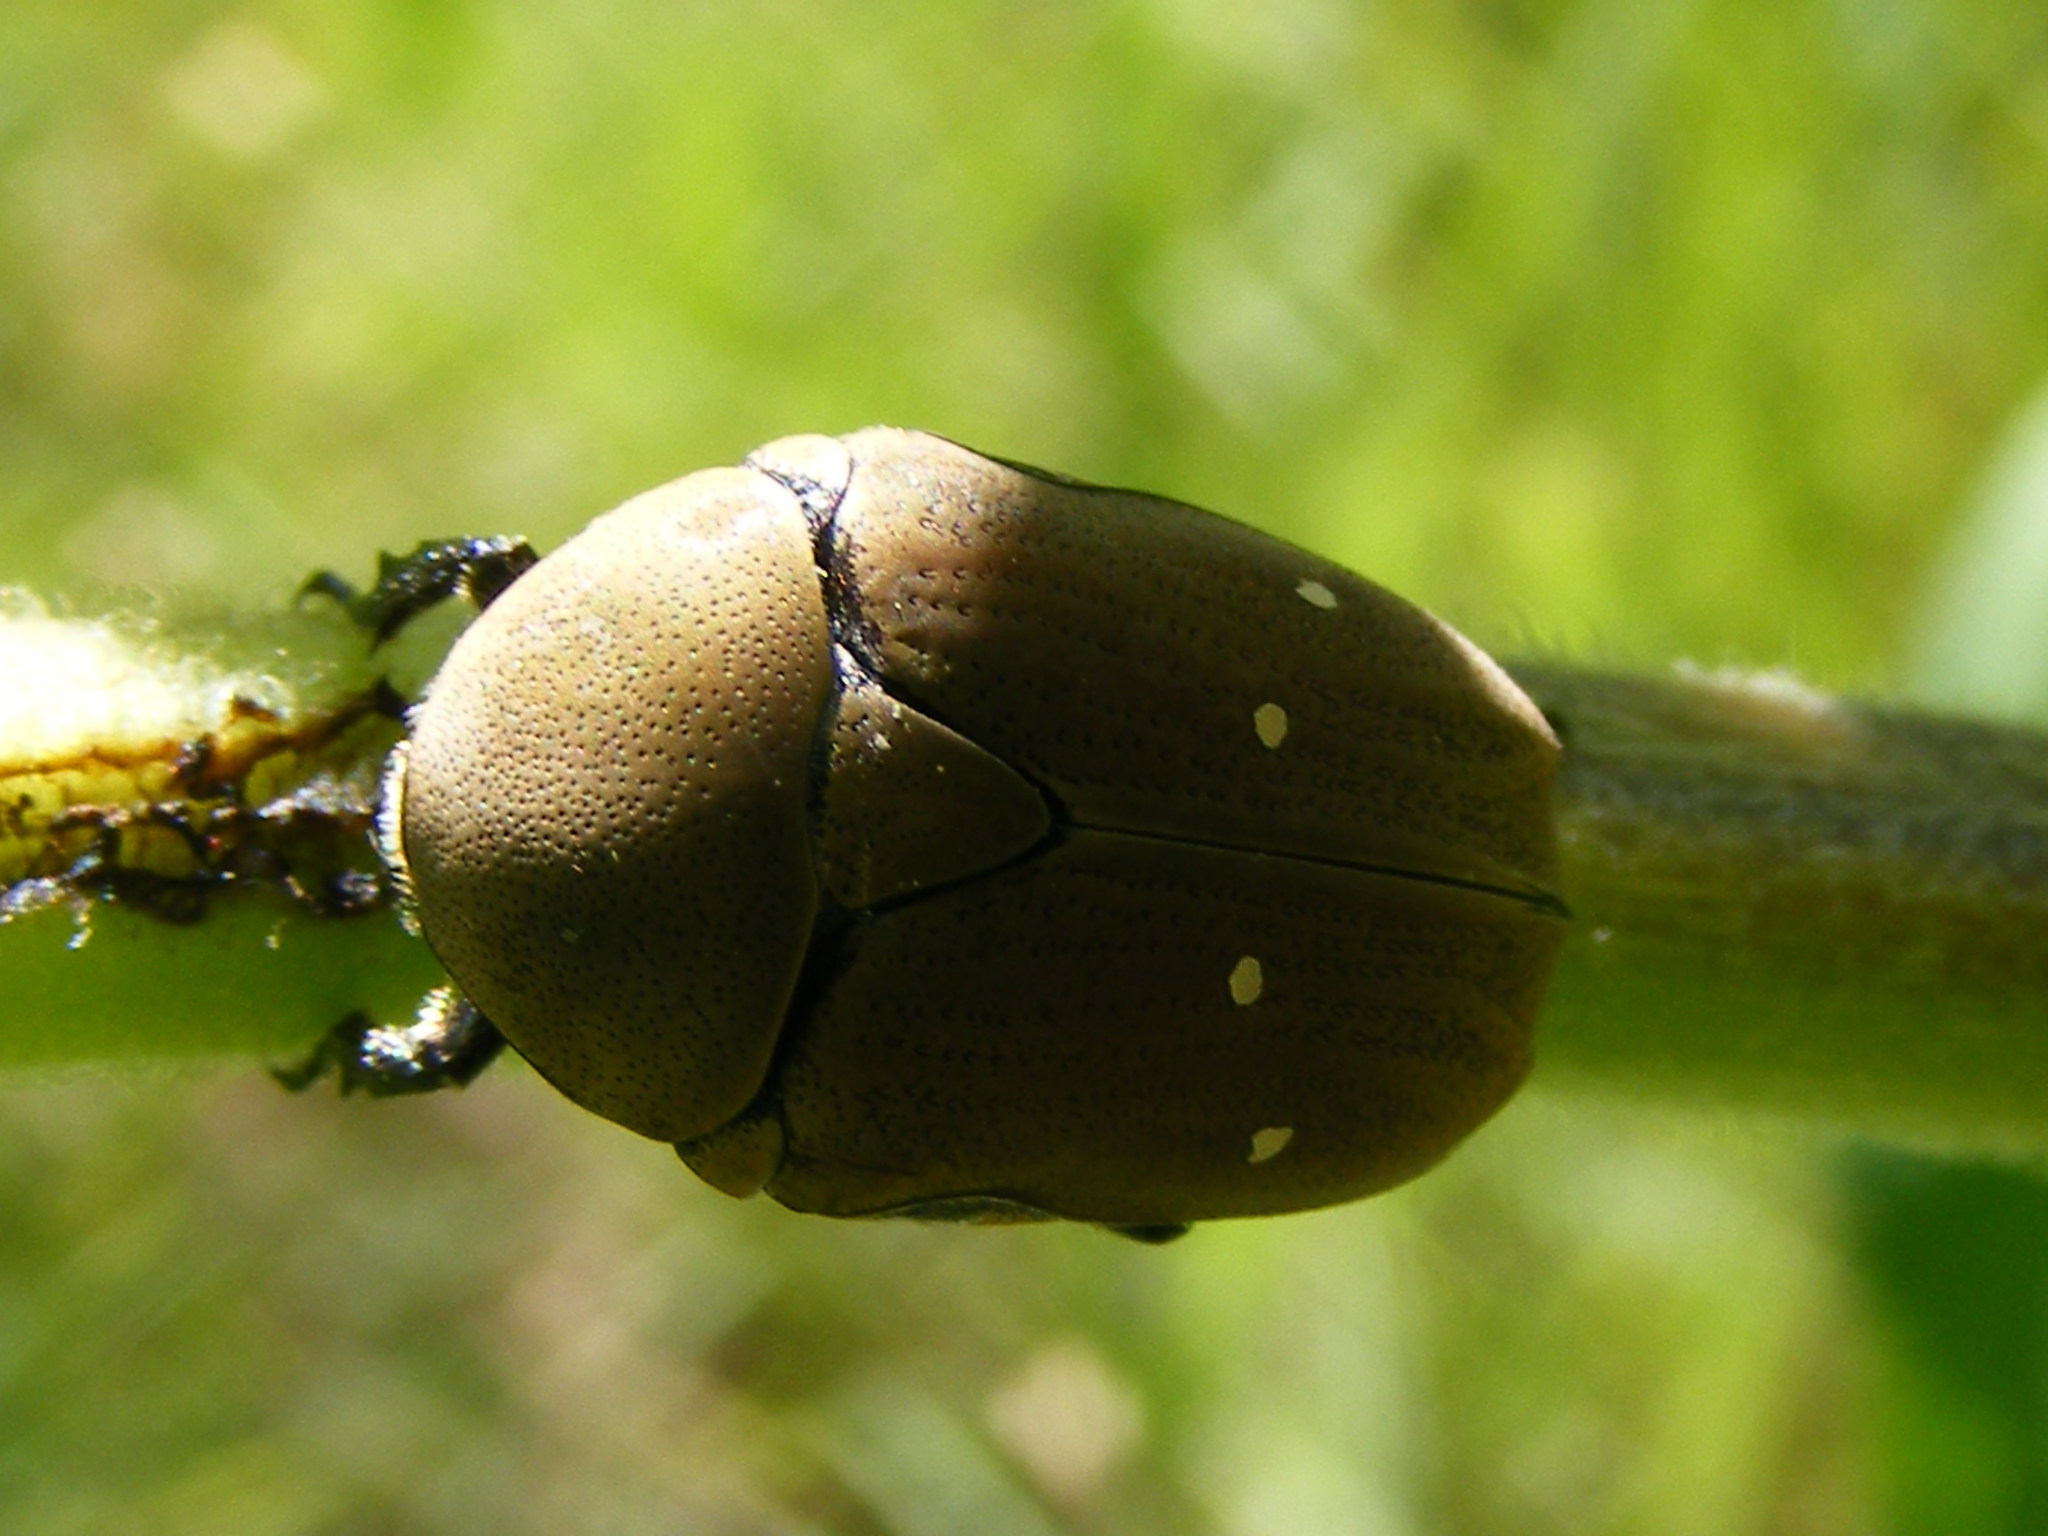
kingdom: Animalia
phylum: Arthropoda
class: Insecta
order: Coleoptera
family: Scarabaeidae
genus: Tephraea
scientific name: Tephraea dichroa
